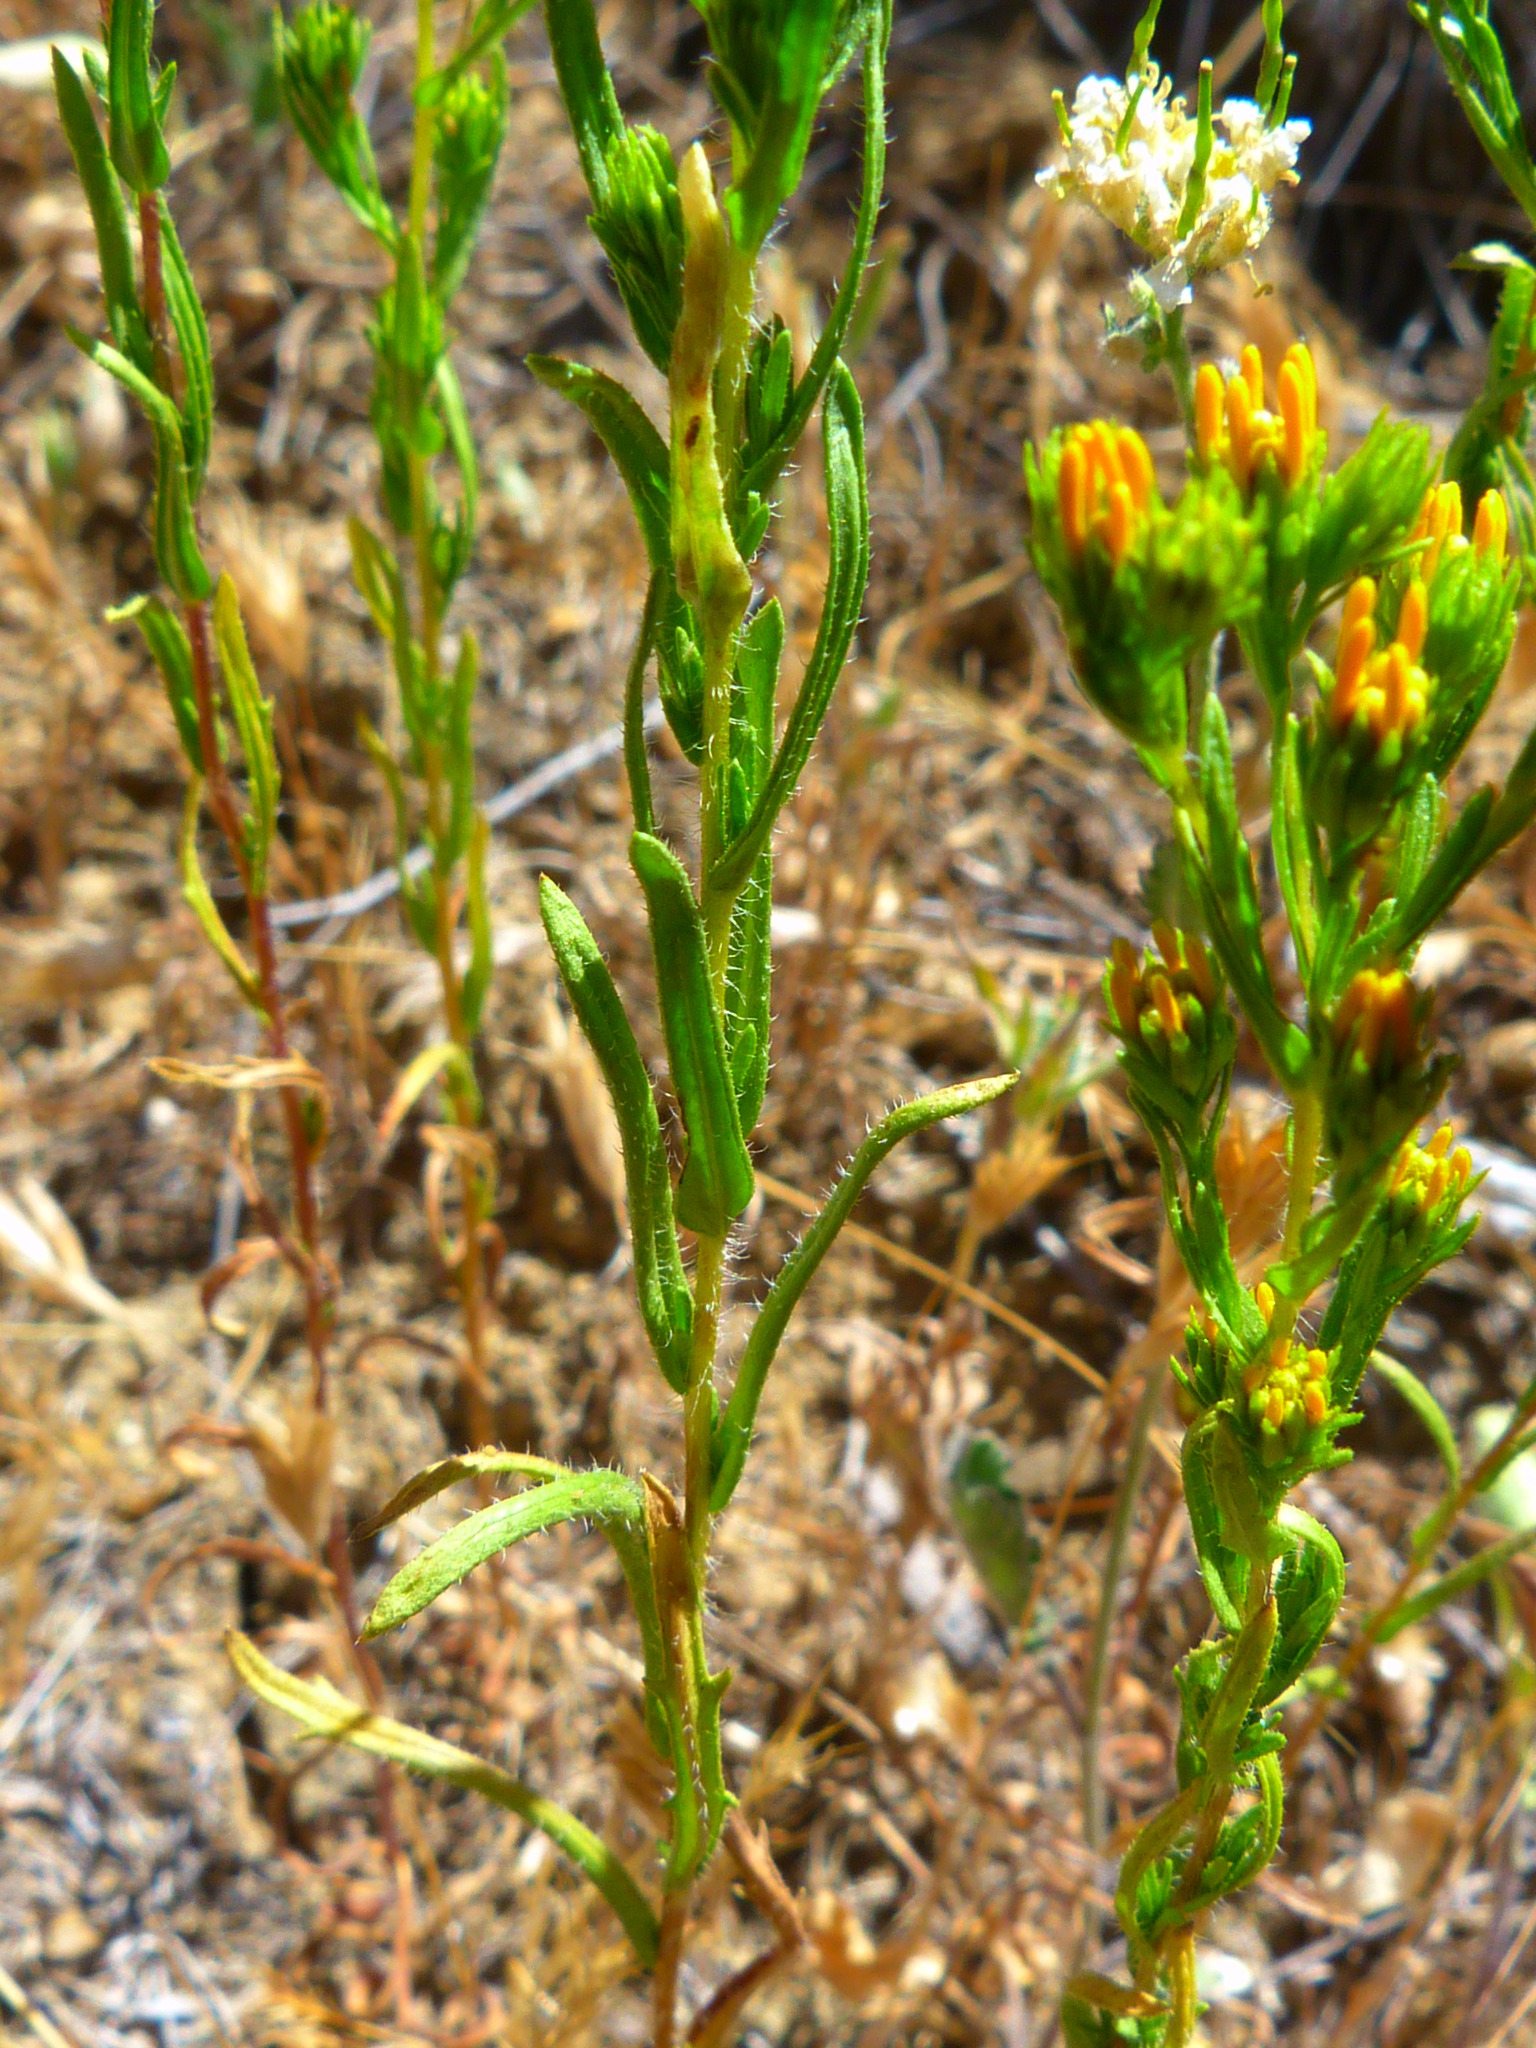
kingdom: Plantae
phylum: Tracheophyta
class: Magnoliopsida
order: Asterales
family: Asteraceae
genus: Deinandra
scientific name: Deinandra fasciculata
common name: Clustered tarweed
